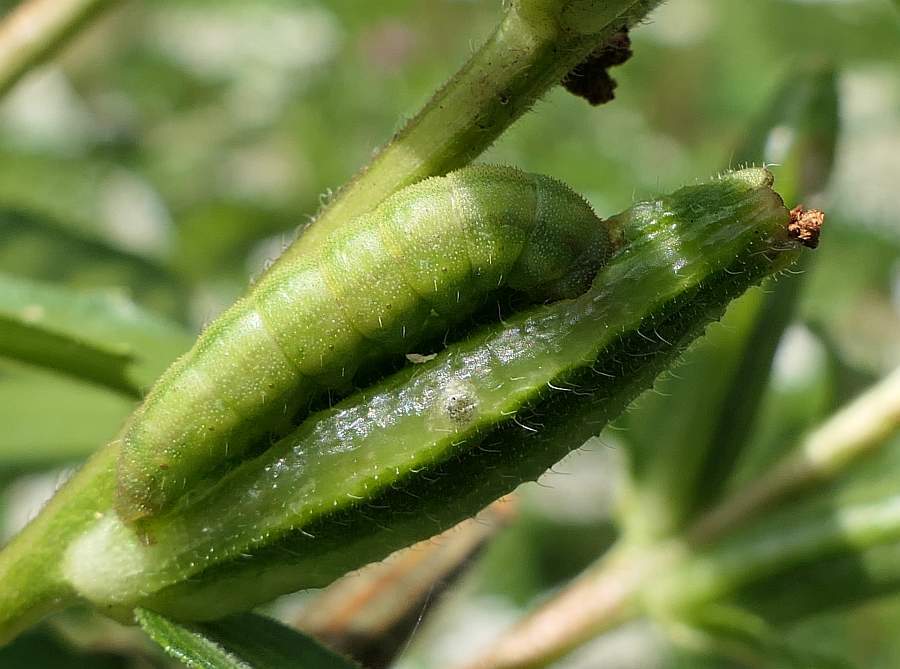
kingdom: Animalia
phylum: Arthropoda
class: Insecta
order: Lepidoptera
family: Noctuidae
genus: Schinia
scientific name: Schinia florida
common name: Primrose moth
